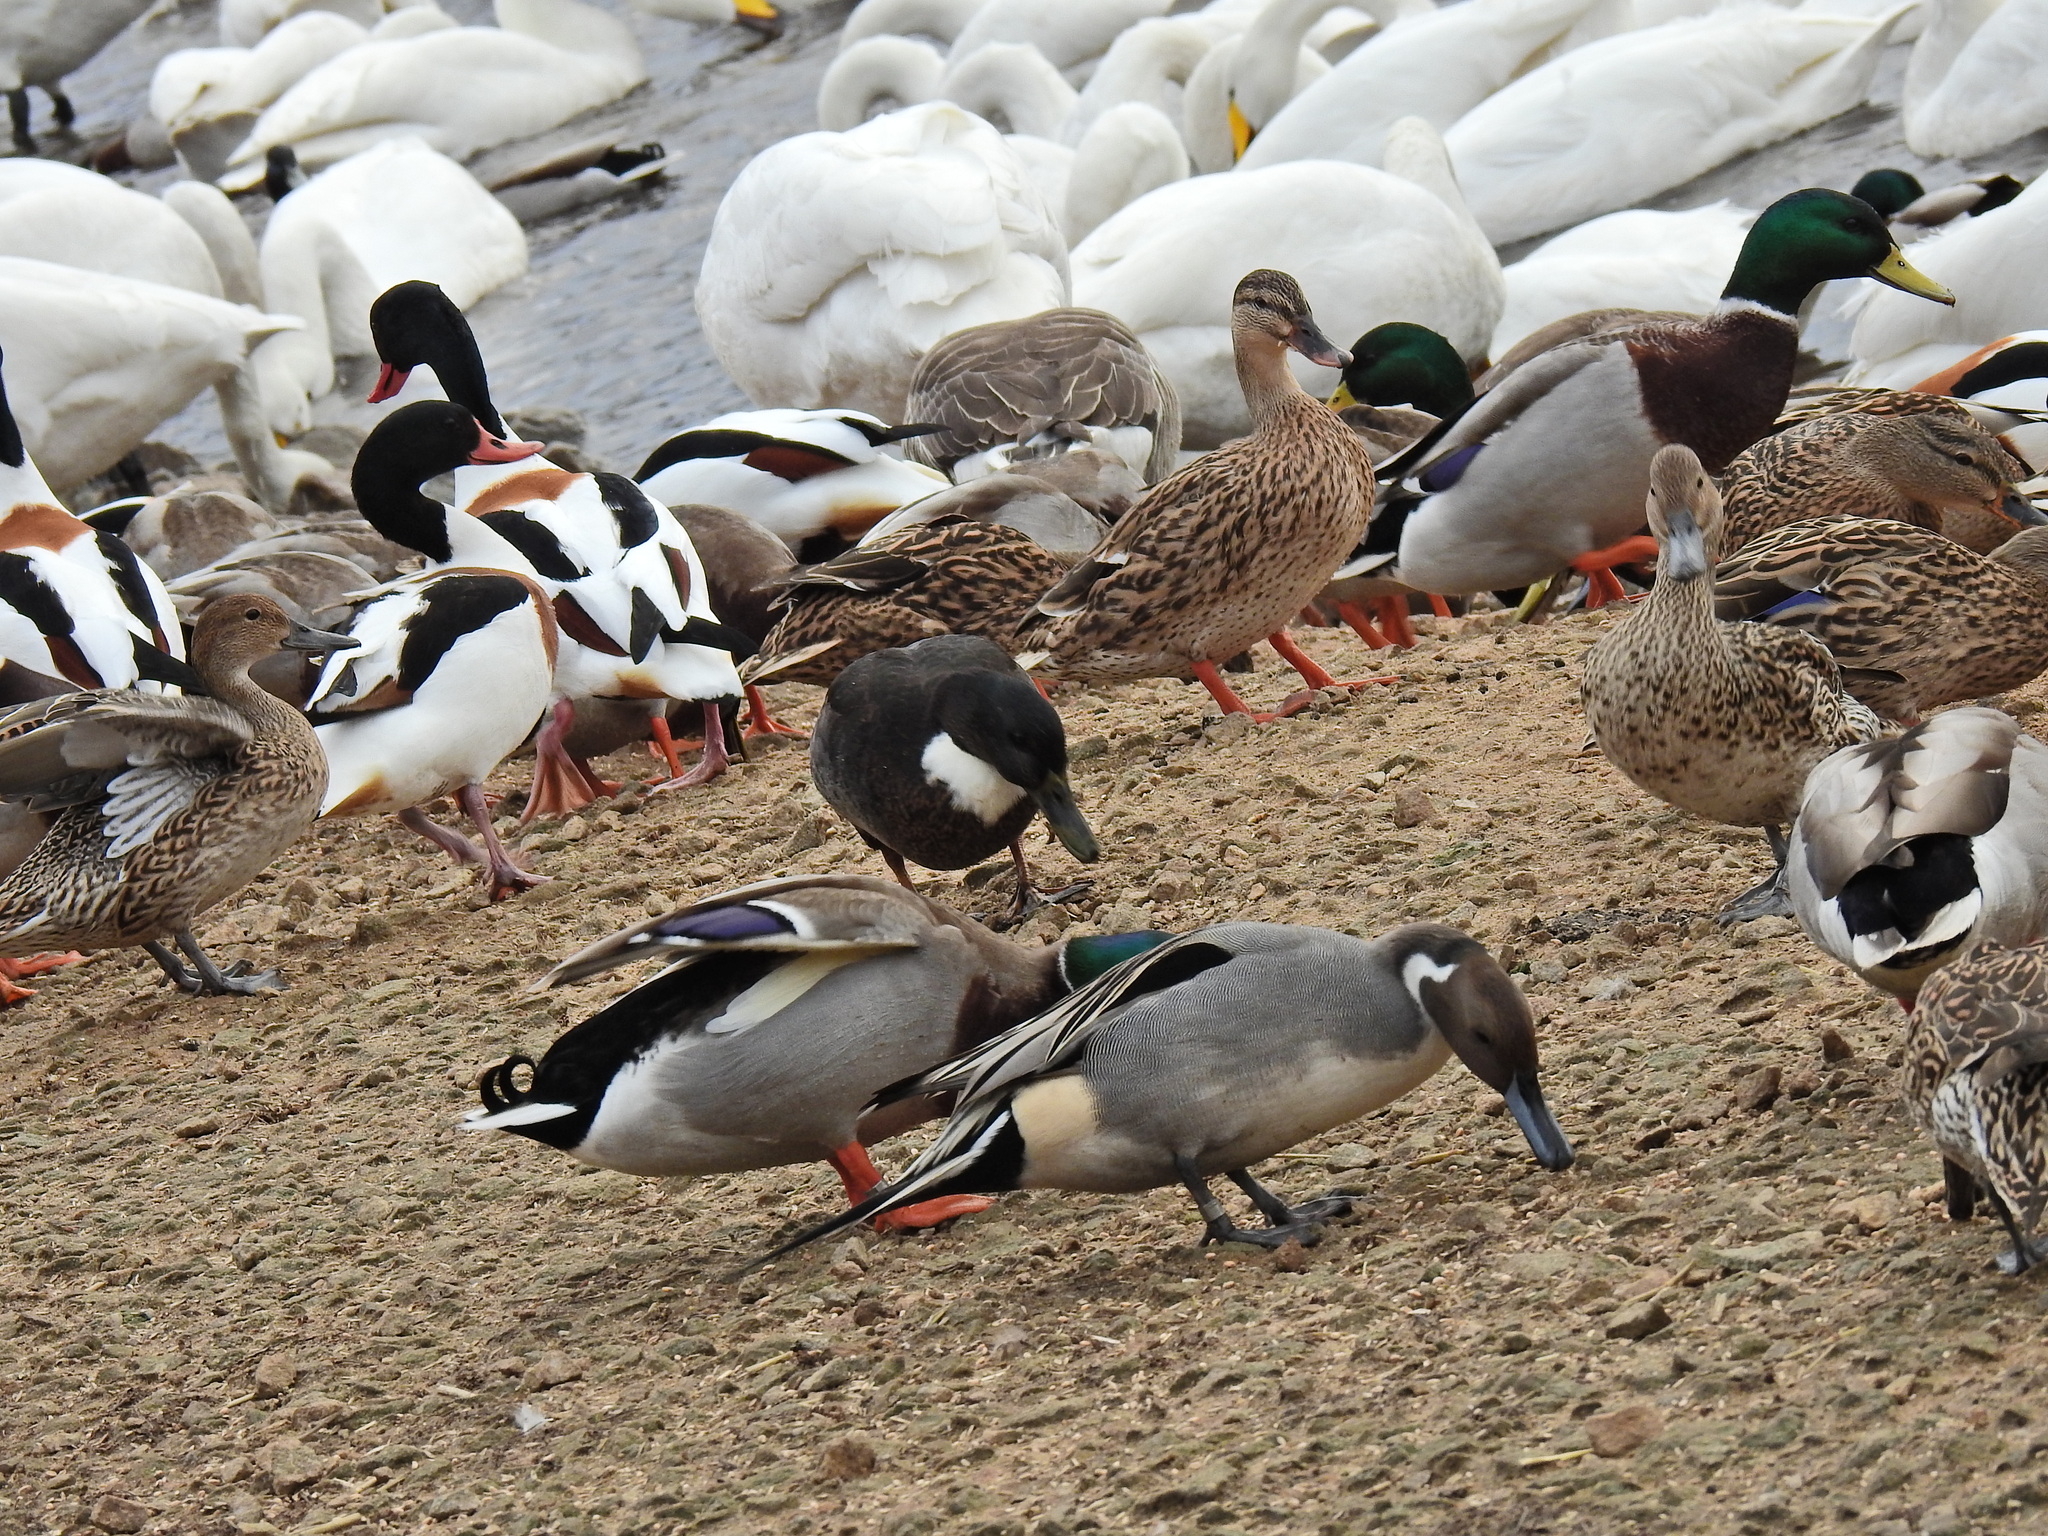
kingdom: Animalia
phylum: Chordata
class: Aves
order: Anseriformes
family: Anatidae
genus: Anas
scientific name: Anas acuta
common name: Northern pintail
